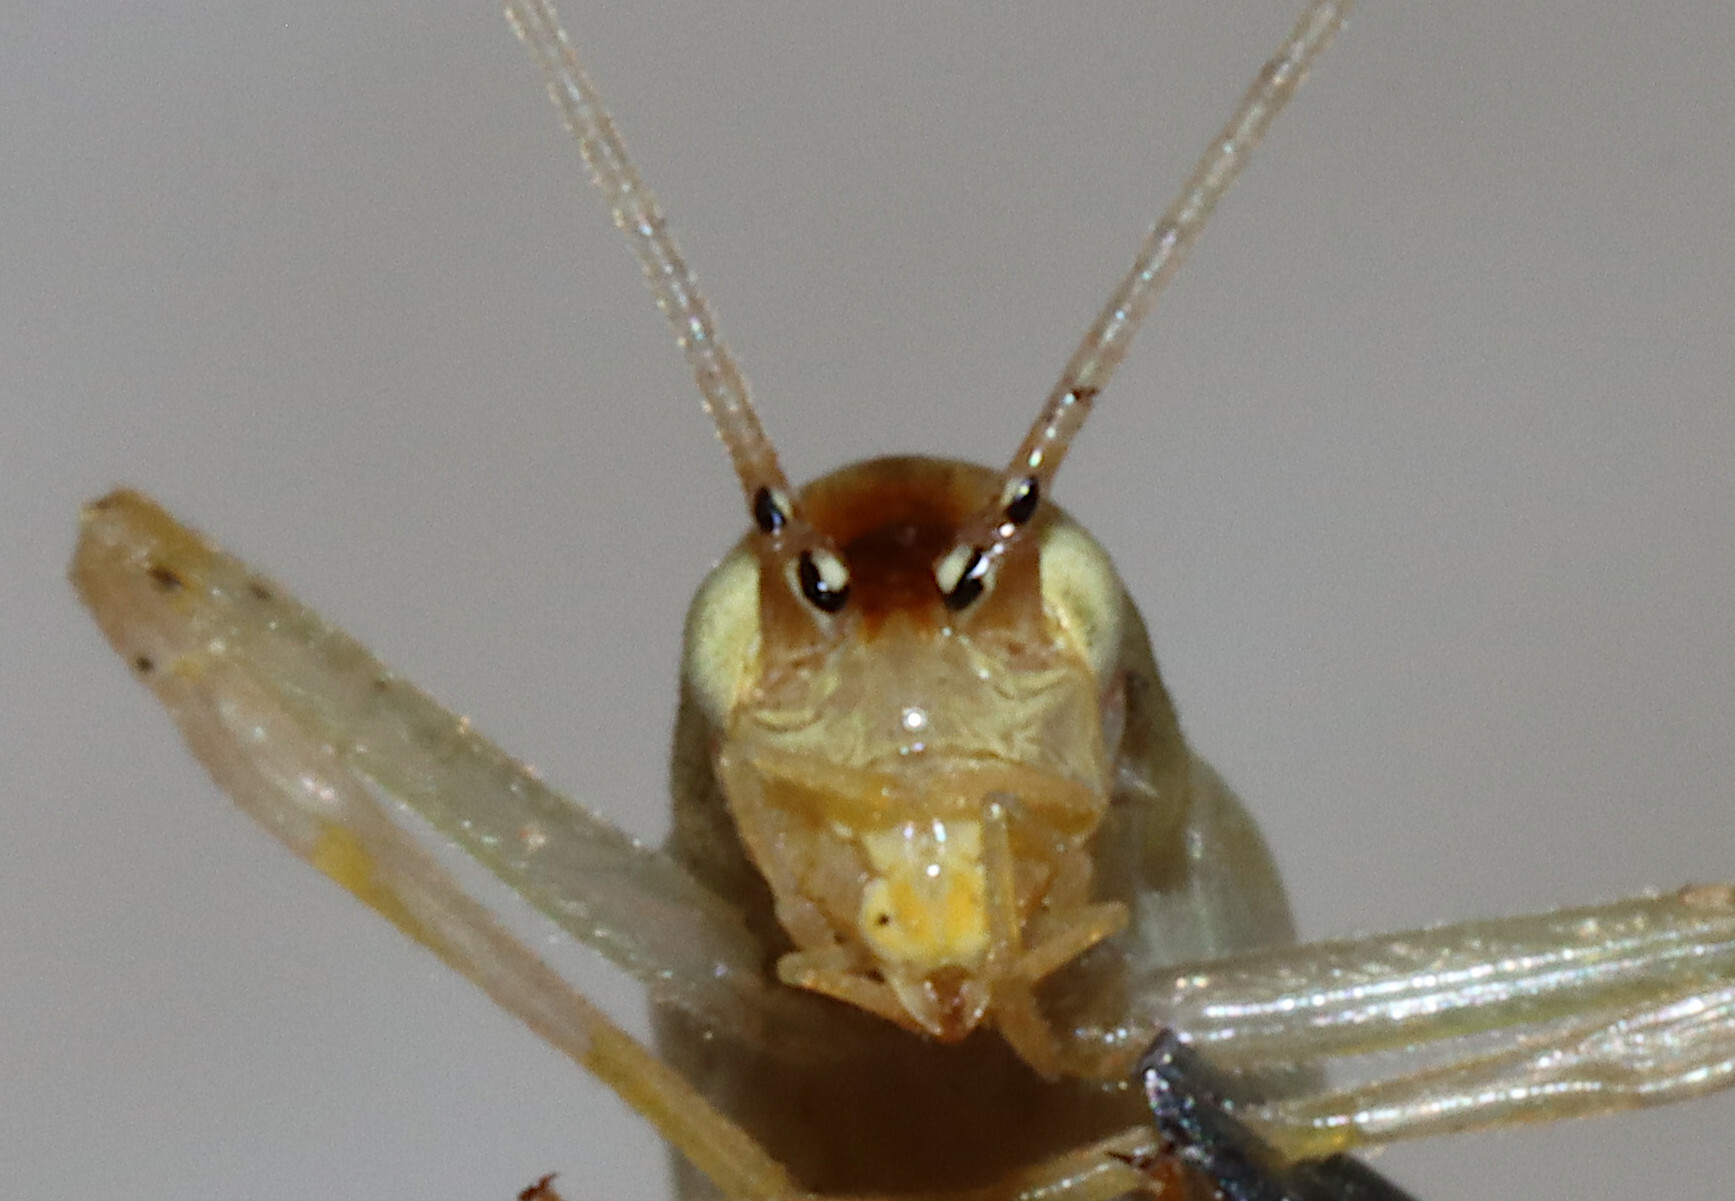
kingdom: Animalia
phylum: Arthropoda
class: Insecta
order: Orthoptera
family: Gryllidae
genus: Oecanthus
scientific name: Oecanthus niveus
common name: Narrow-winged tree cricket
